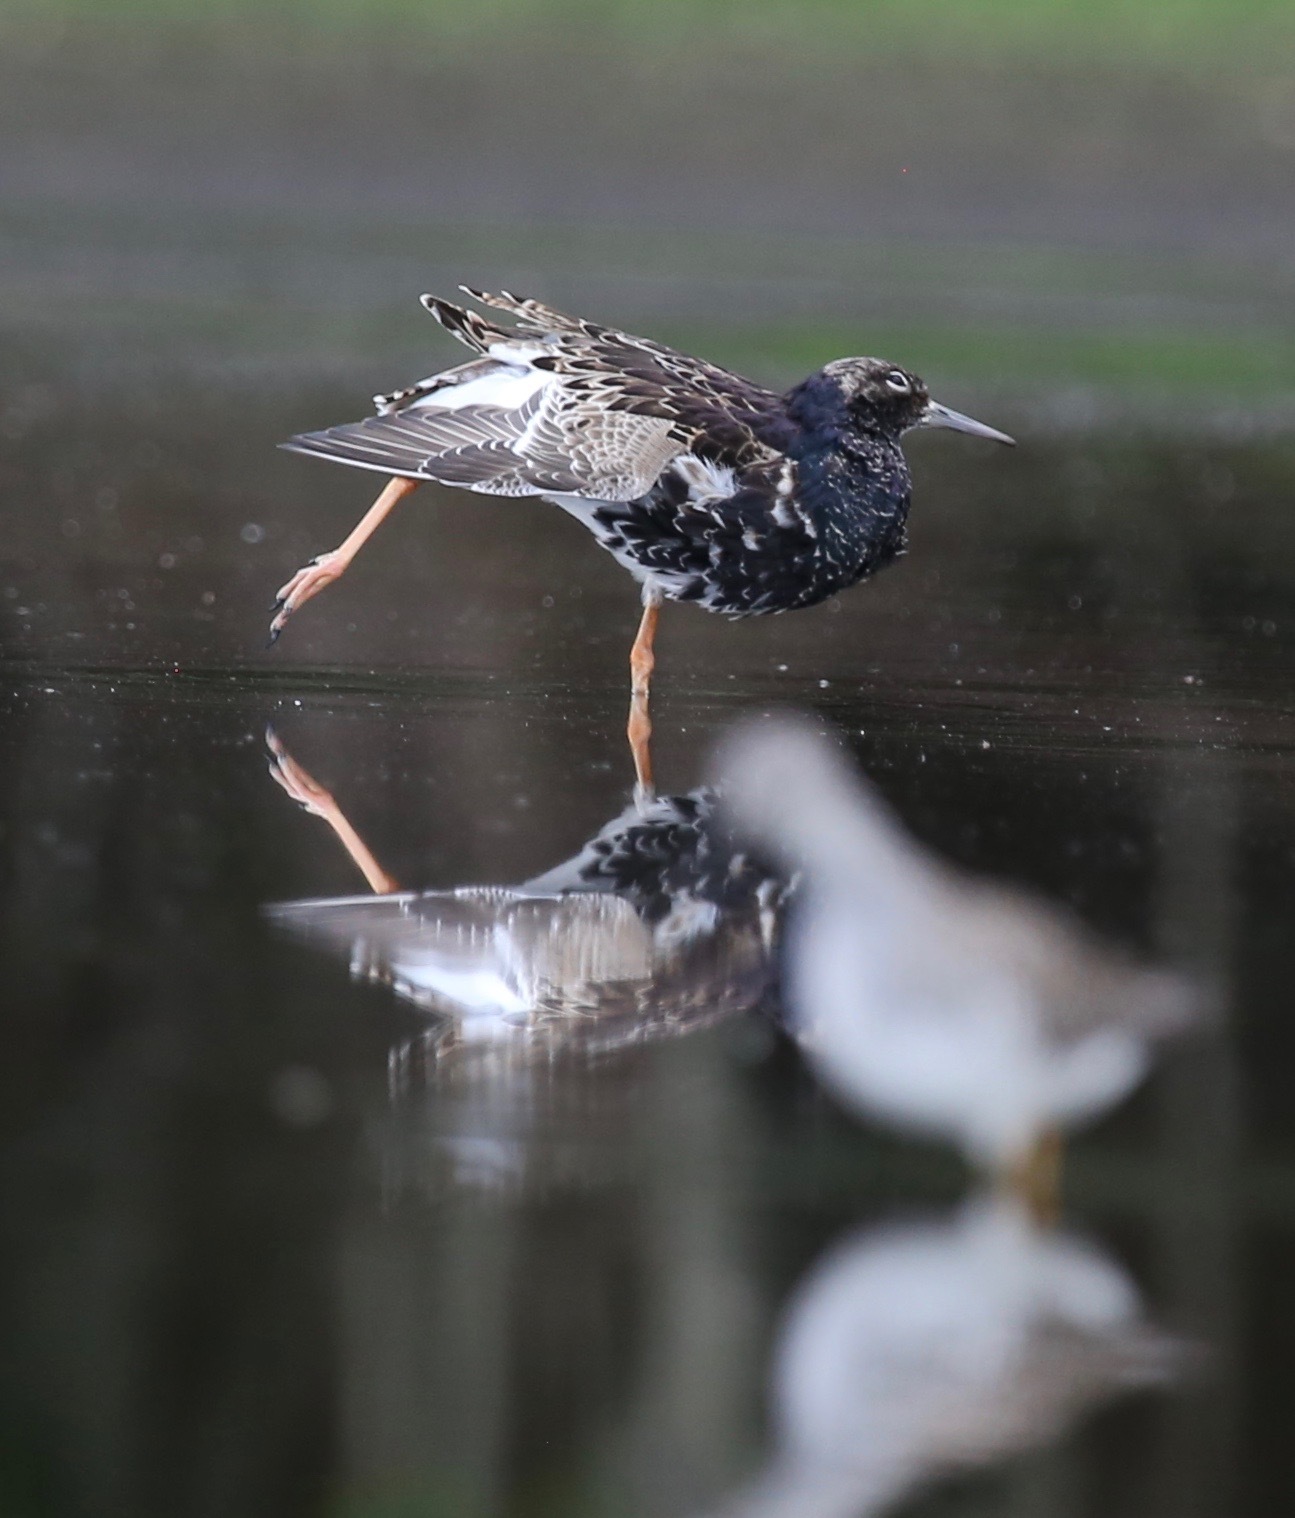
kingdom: Animalia
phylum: Chordata
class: Aves
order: Charadriiformes
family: Scolopacidae
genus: Calidris
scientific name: Calidris pugnax
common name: Ruff
